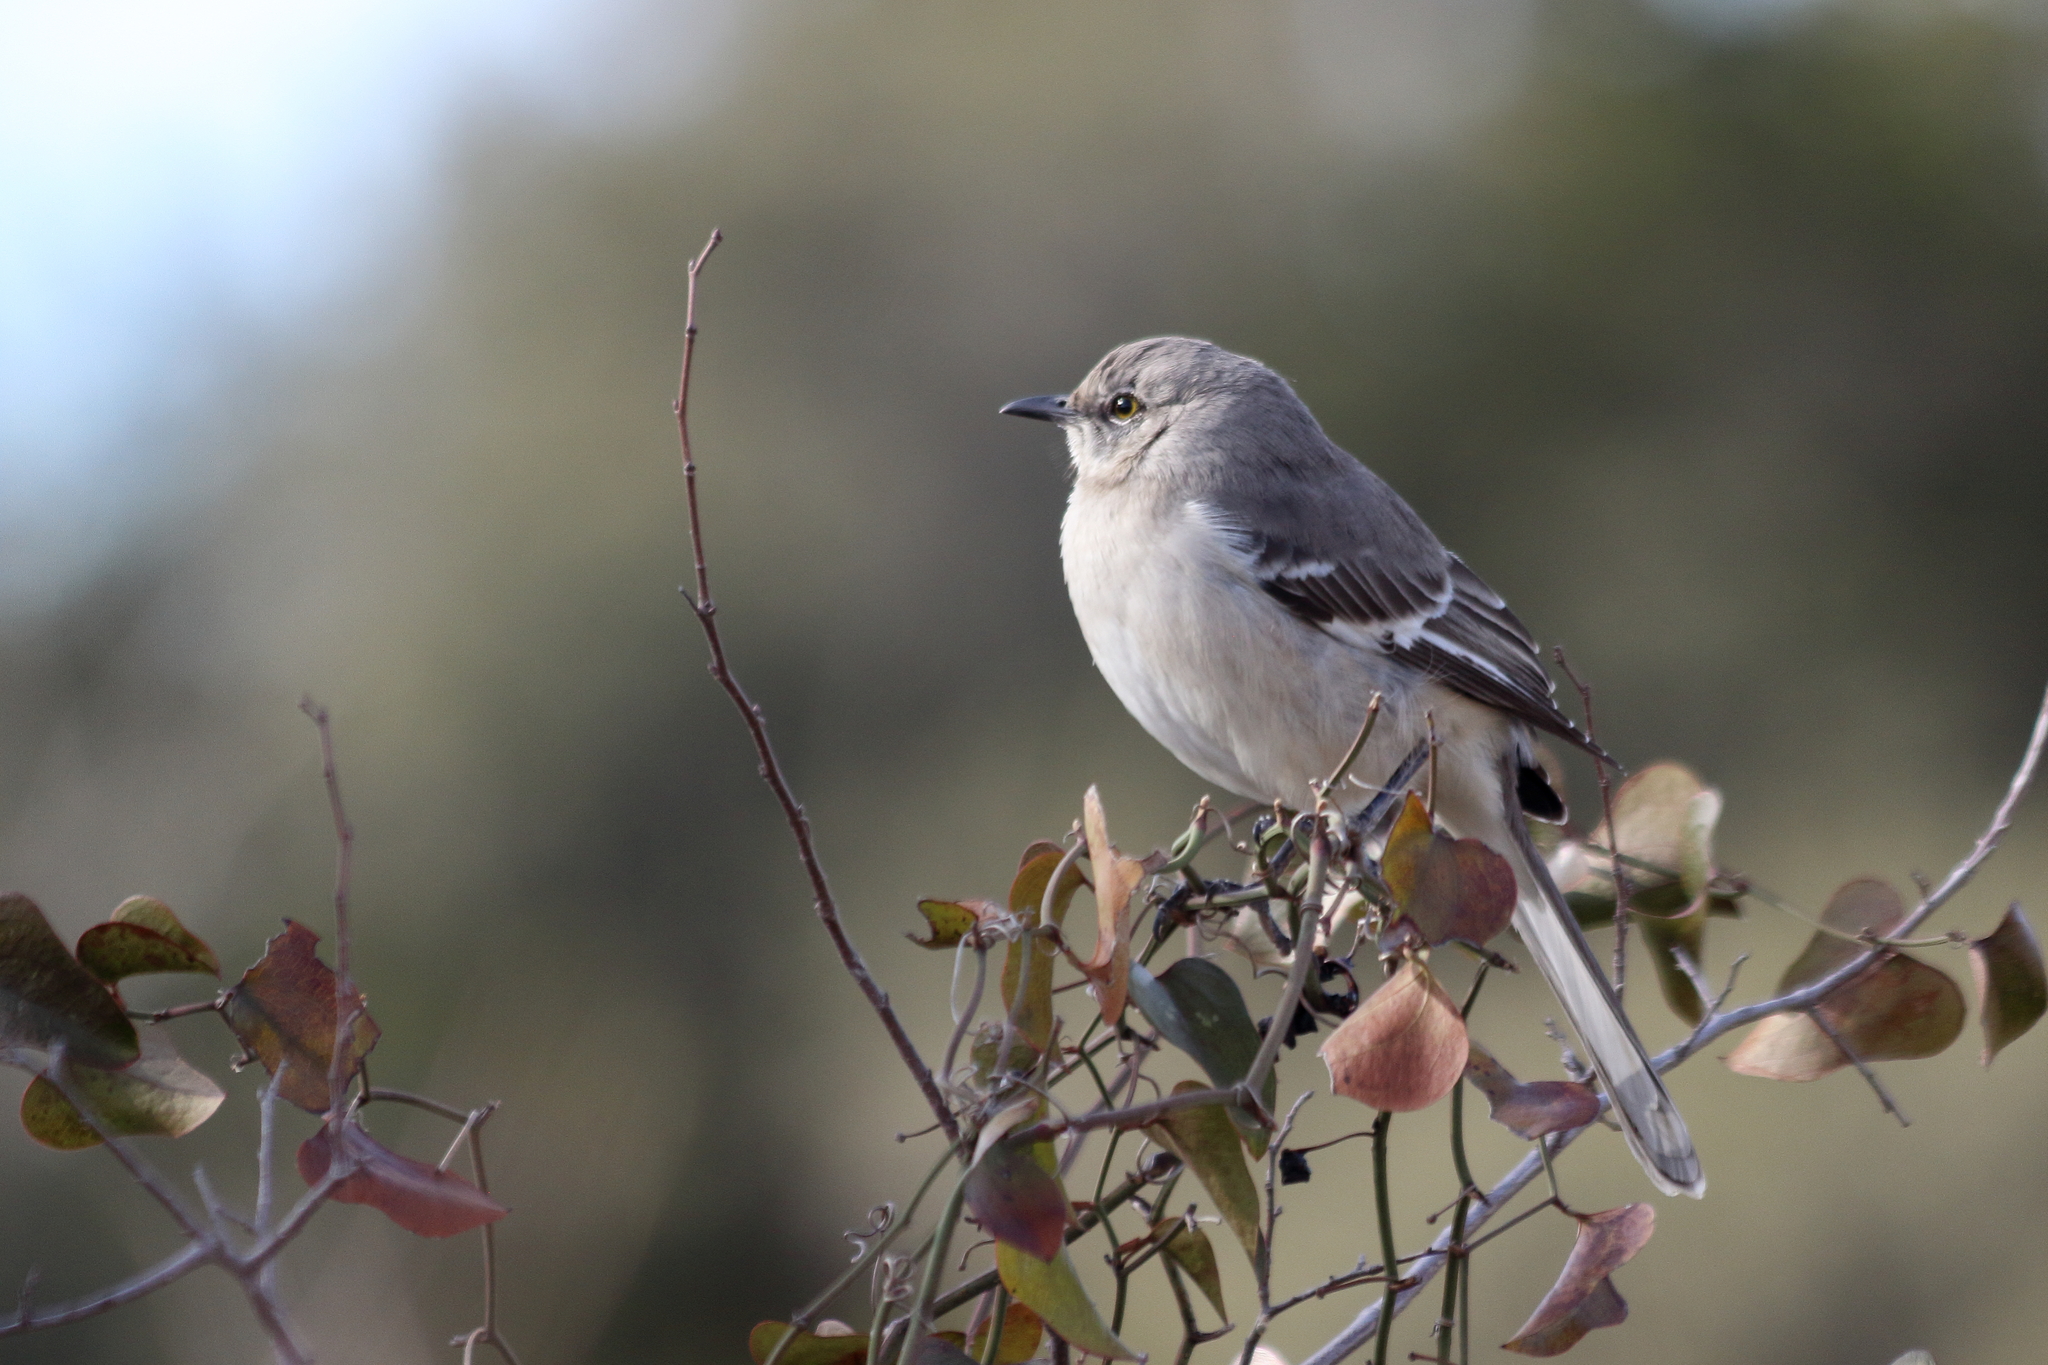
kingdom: Animalia
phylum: Chordata
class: Aves
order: Passeriformes
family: Mimidae
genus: Mimus
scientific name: Mimus polyglottos
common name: Northern mockingbird
